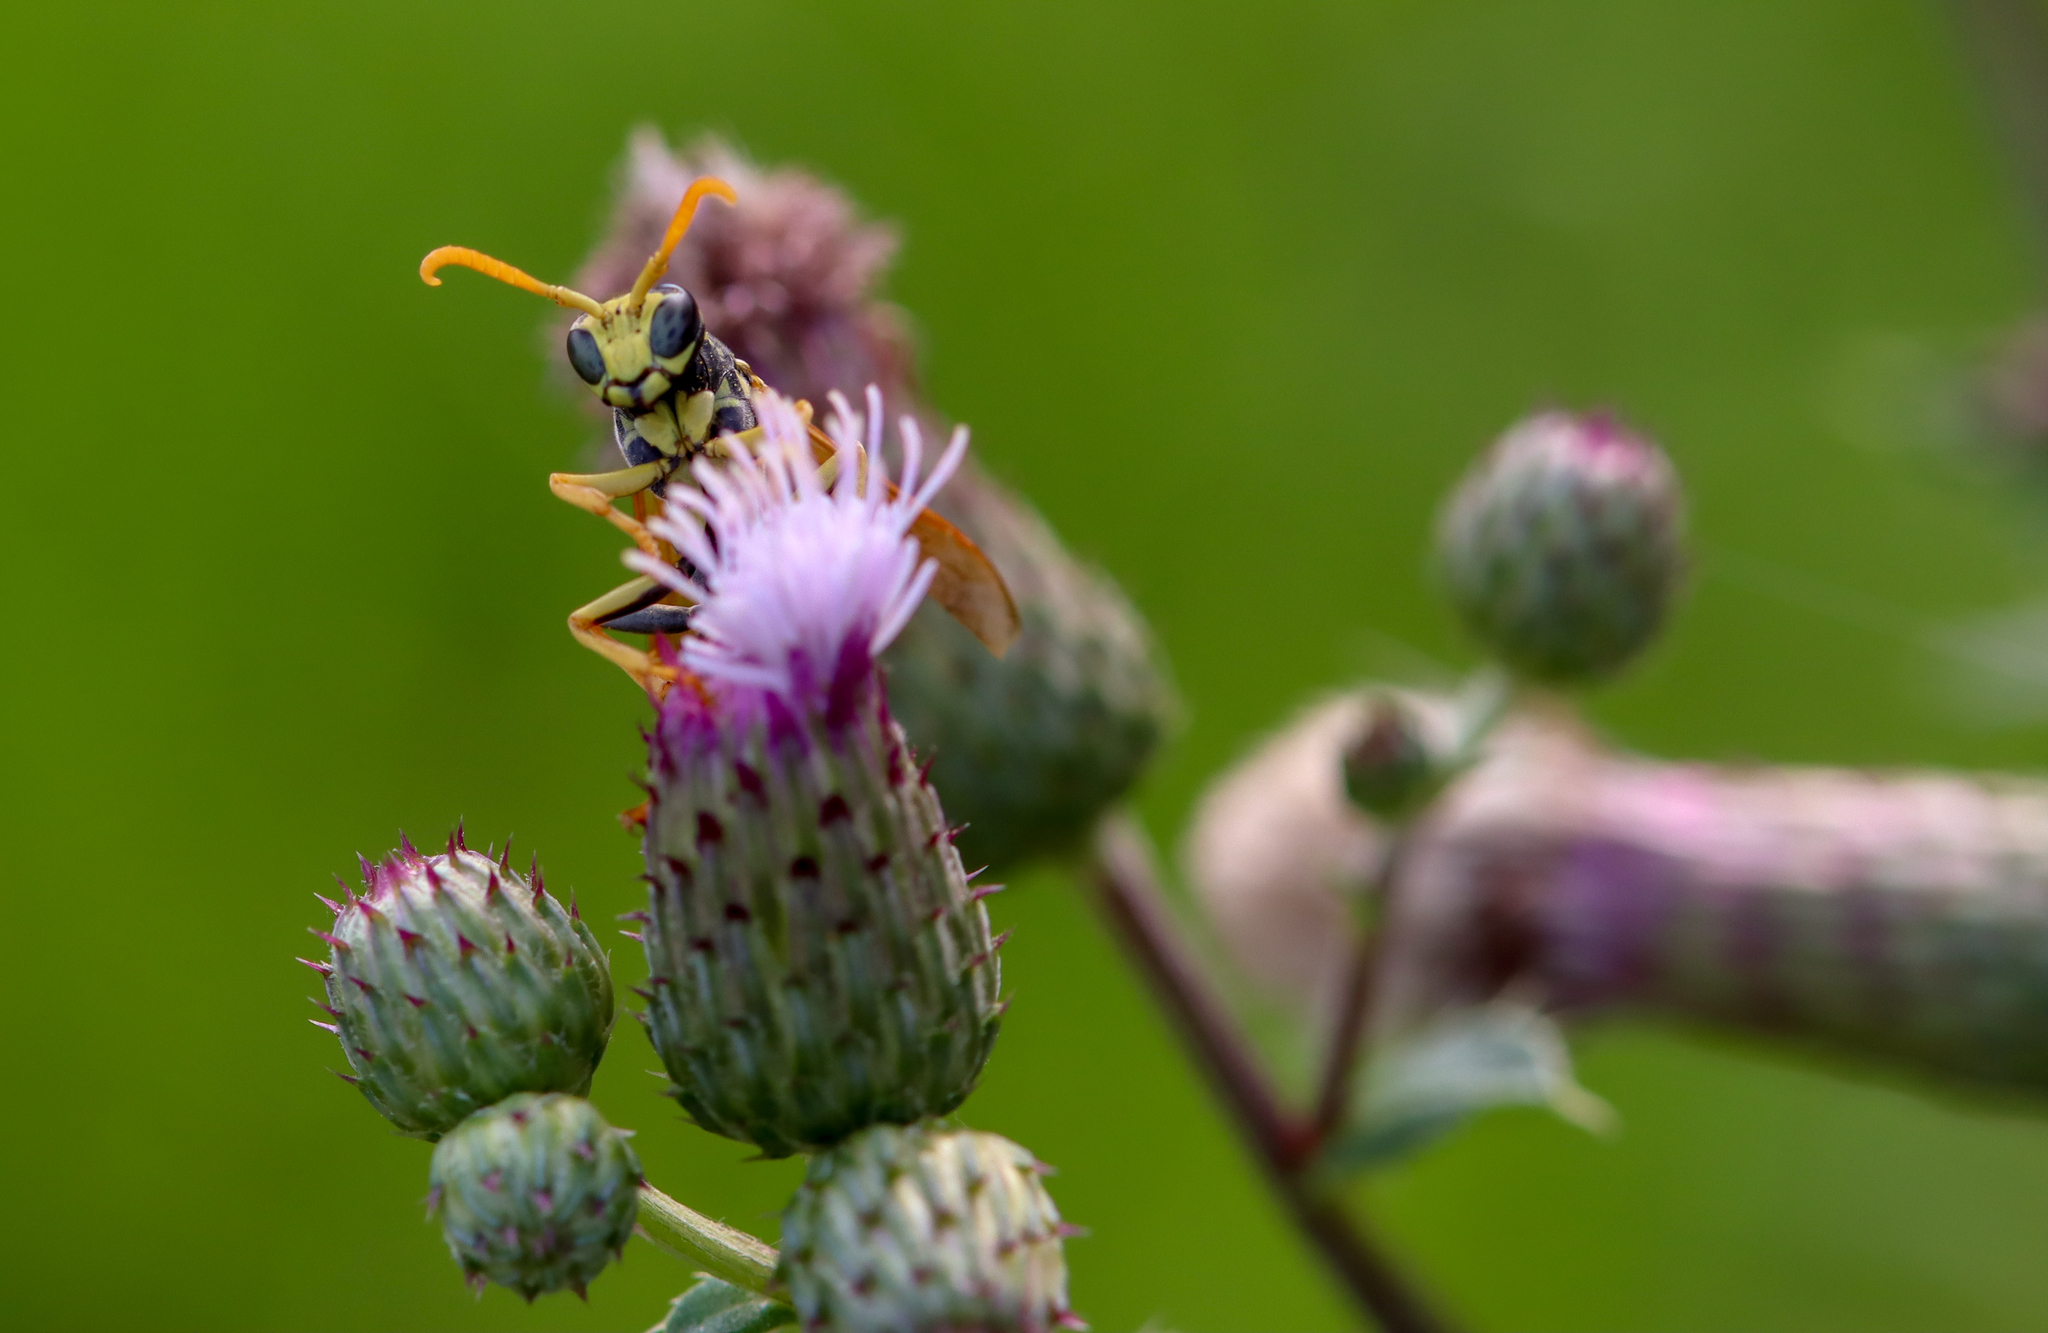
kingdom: Animalia
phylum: Arthropoda
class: Insecta
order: Hymenoptera
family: Eumenidae
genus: Polistes
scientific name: Polistes dominula
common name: Paper wasp
